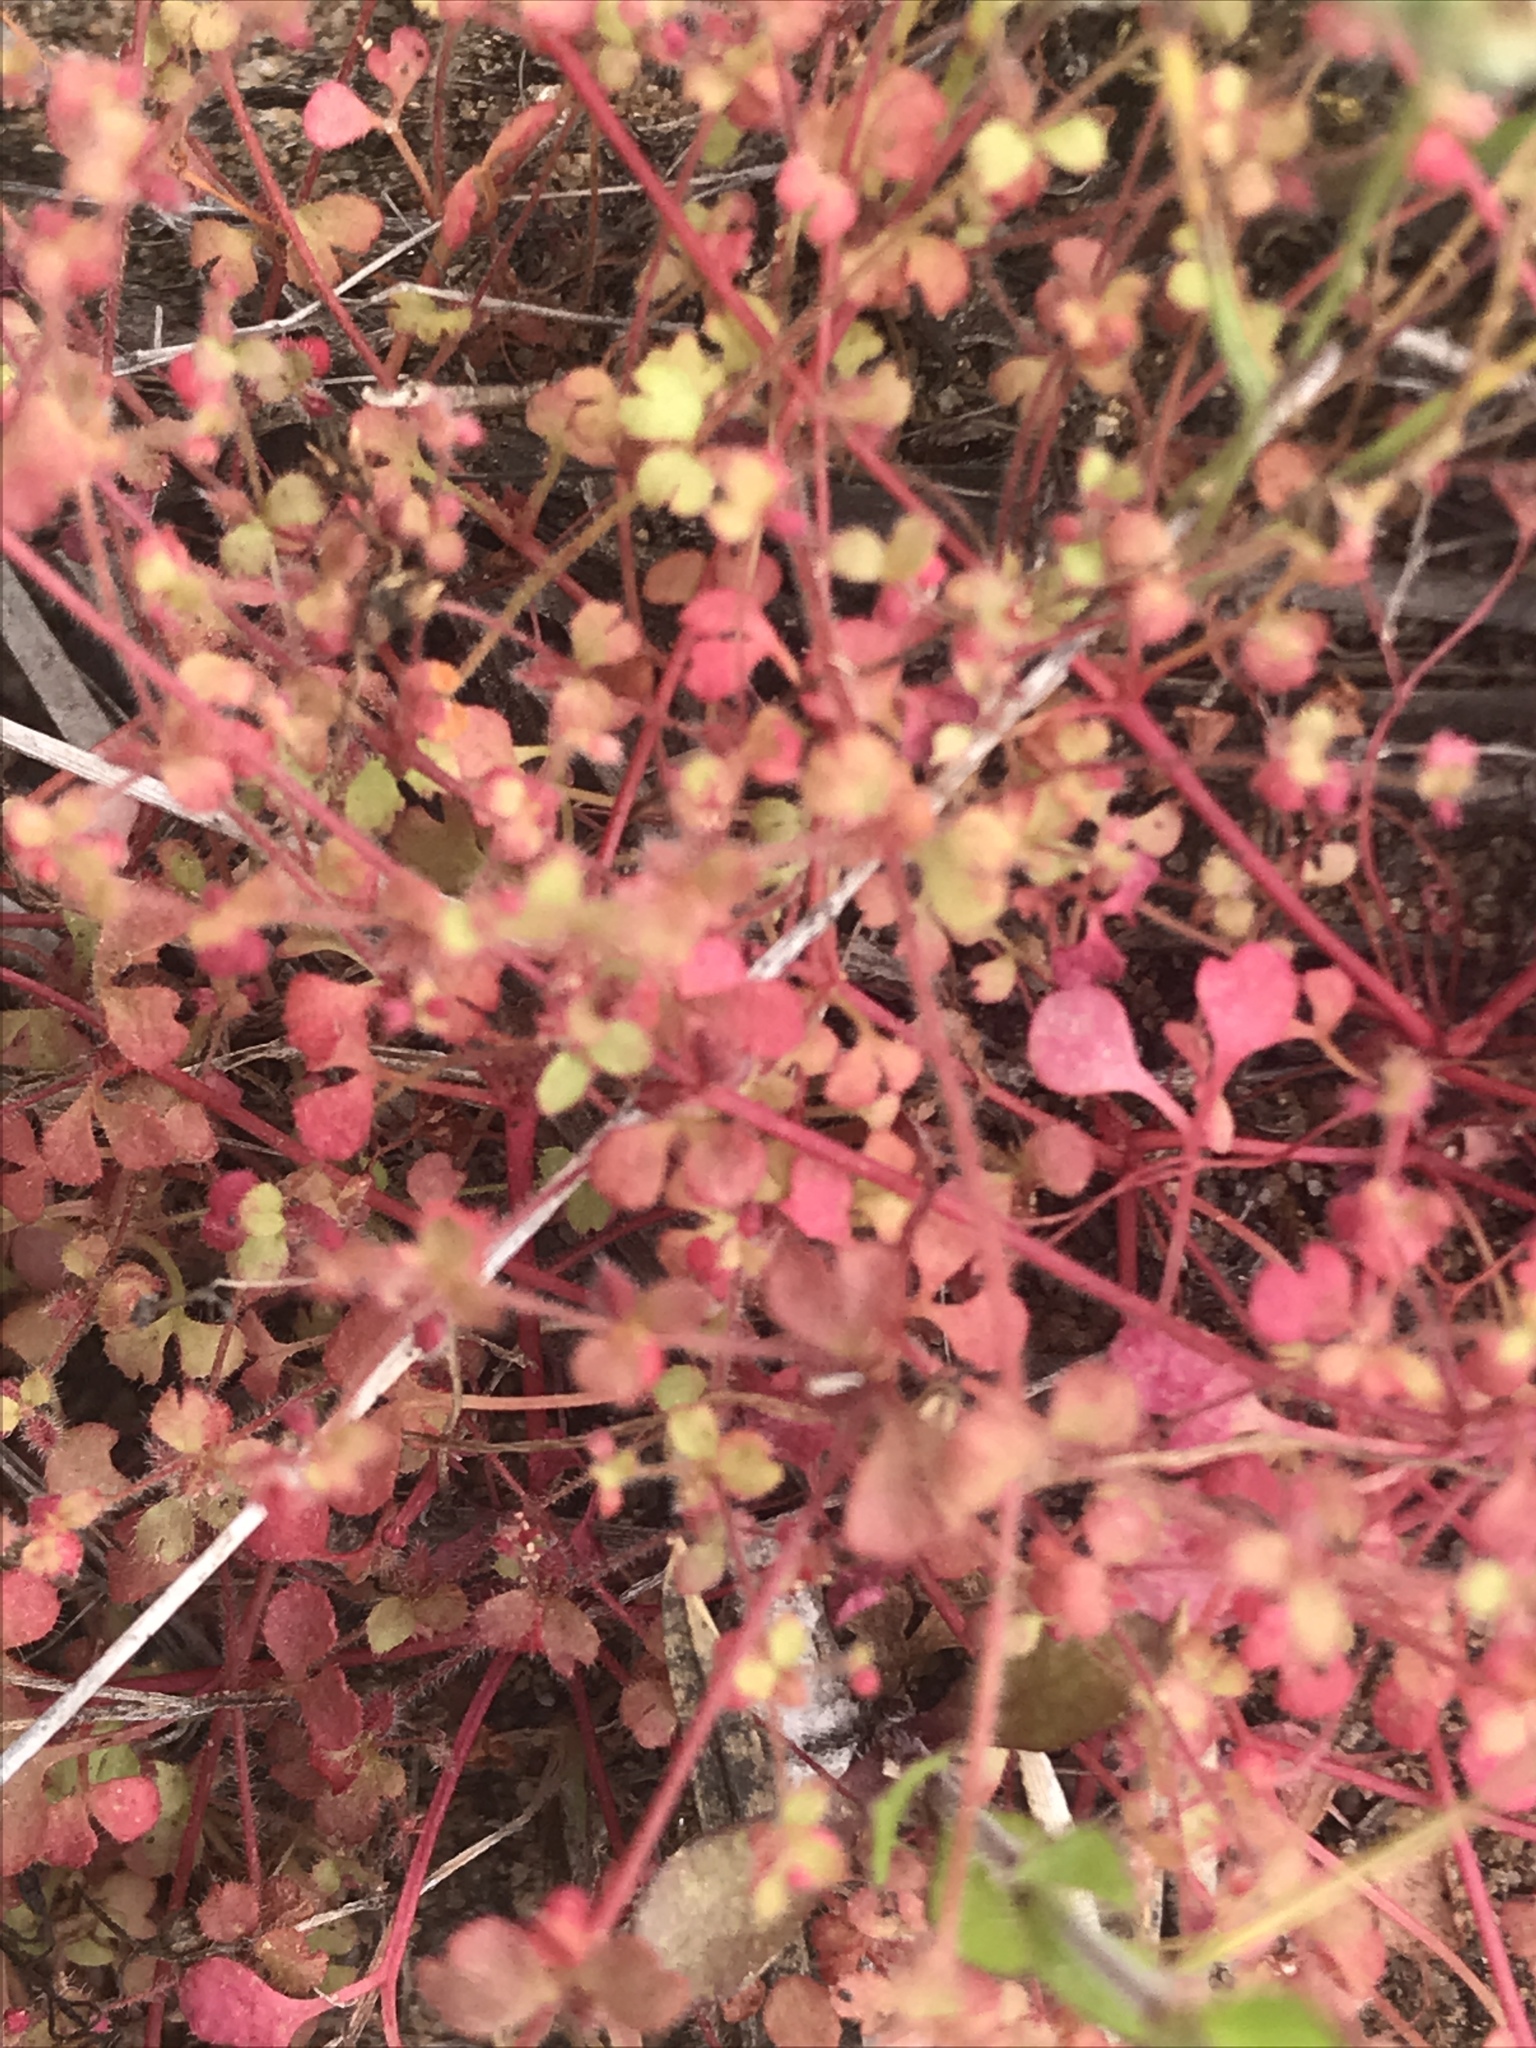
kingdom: Plantae
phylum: Tracheophyta
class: Magnoliopsida
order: Caryophyllales
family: Polygonaceae
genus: Pterostegia
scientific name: Pterostegia drymarioides
